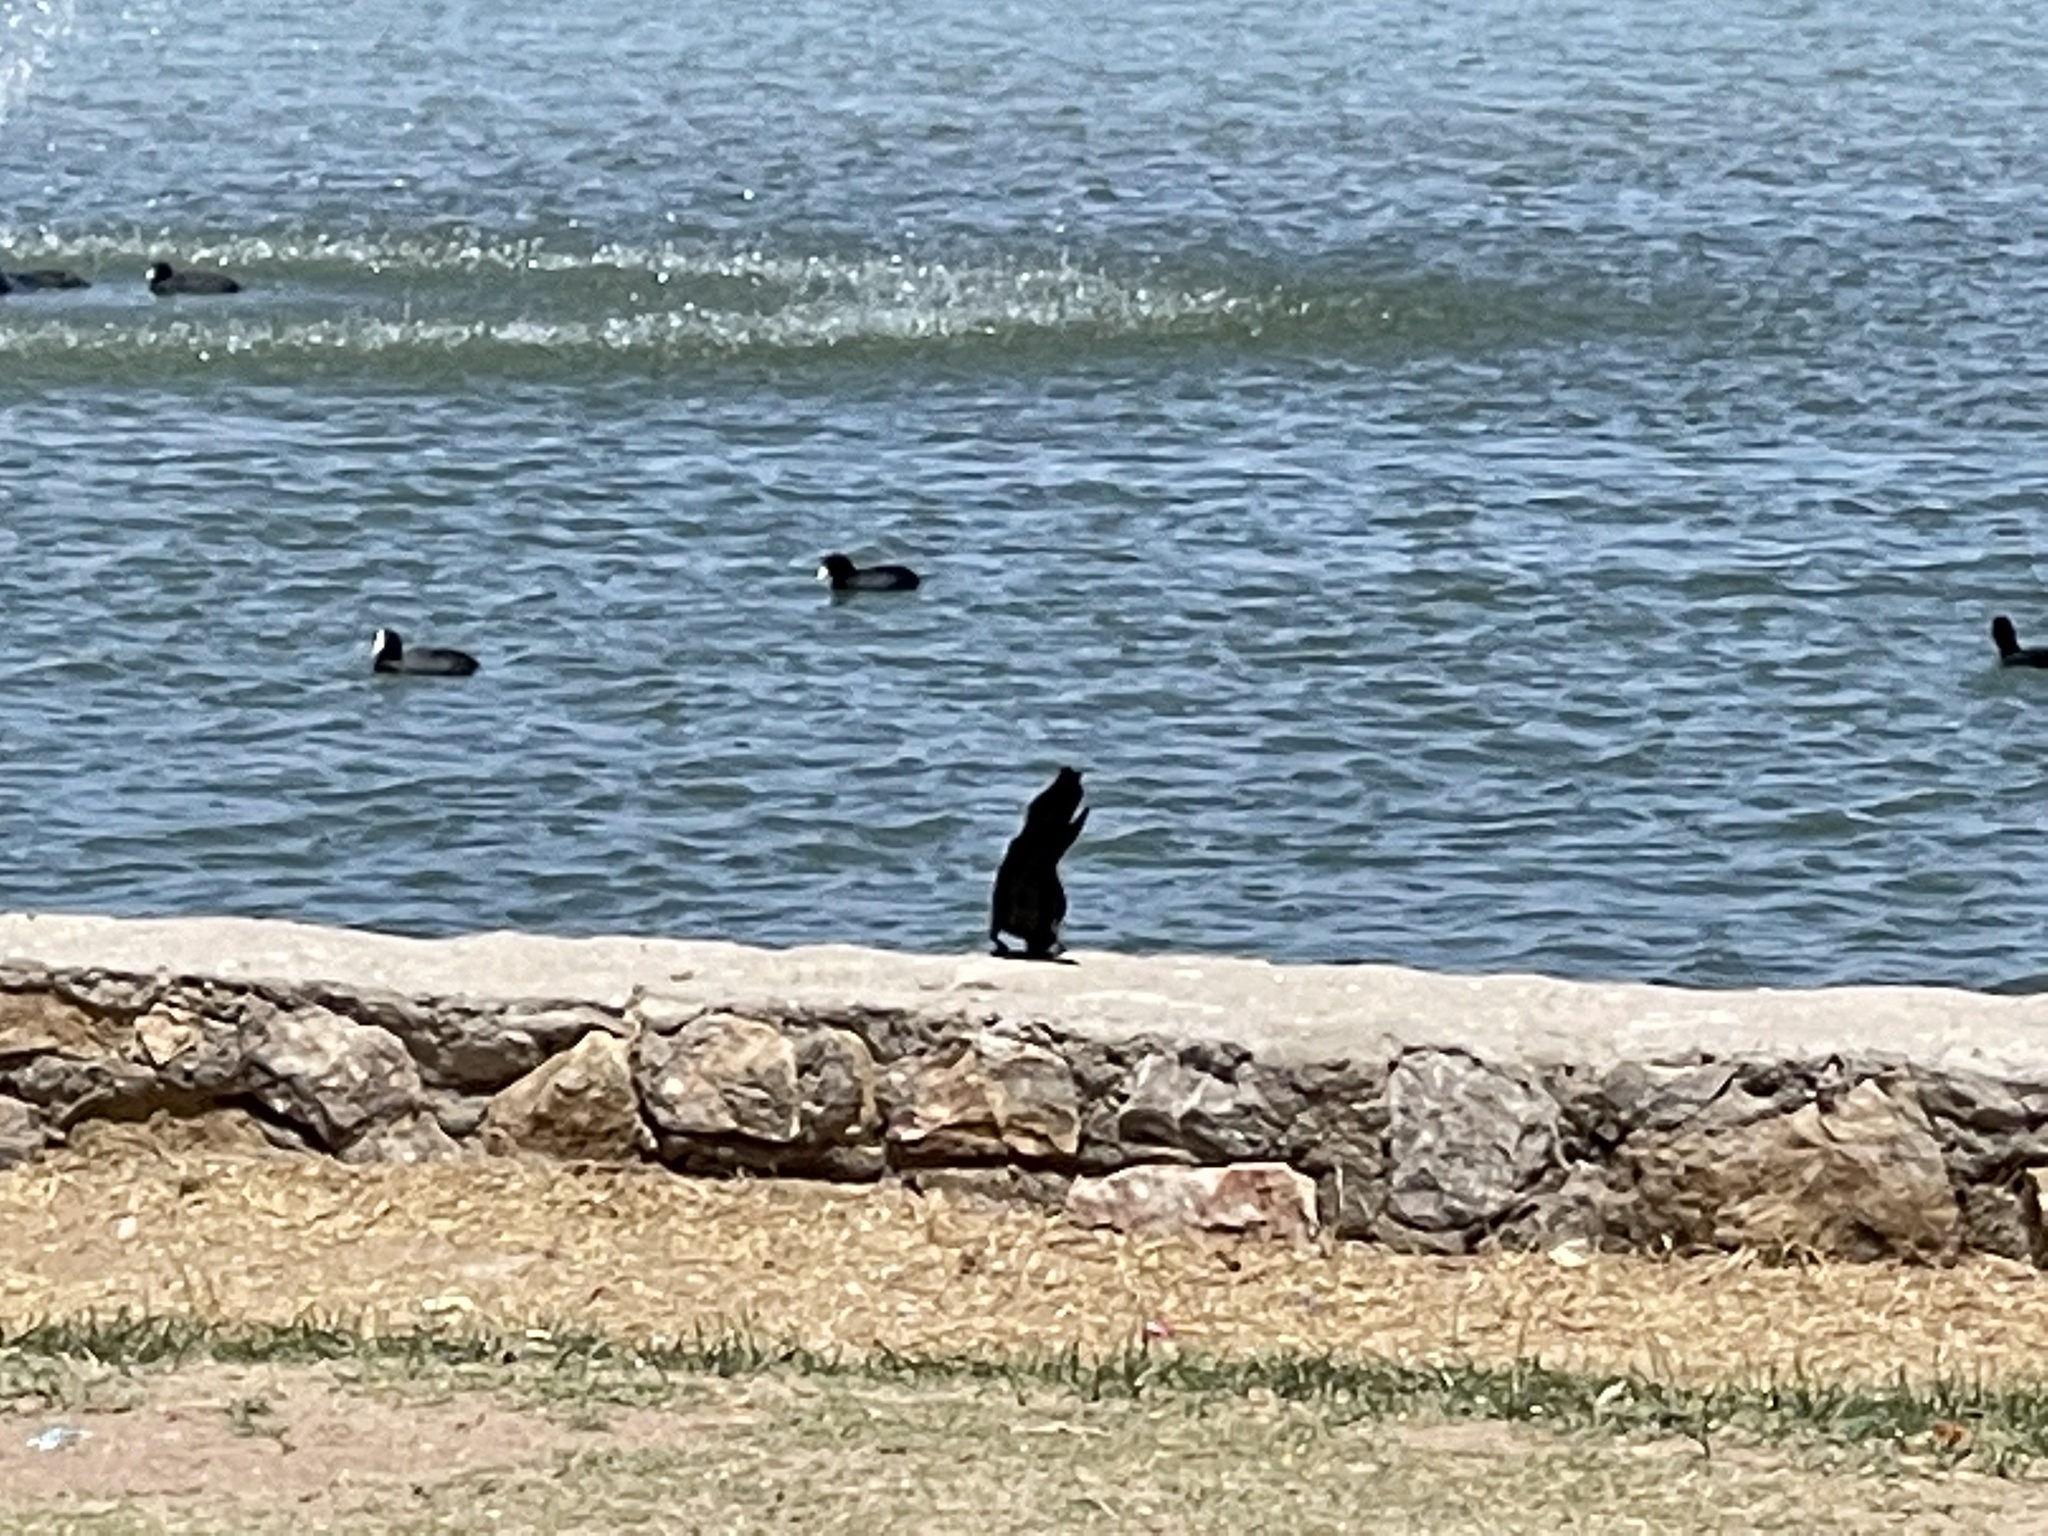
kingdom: Animalia
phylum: Chordata
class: Aves
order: Passeriformes
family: Icteridae
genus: Quiscalus
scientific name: Quiscalus mexicanus
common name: Great-tailed grackle
